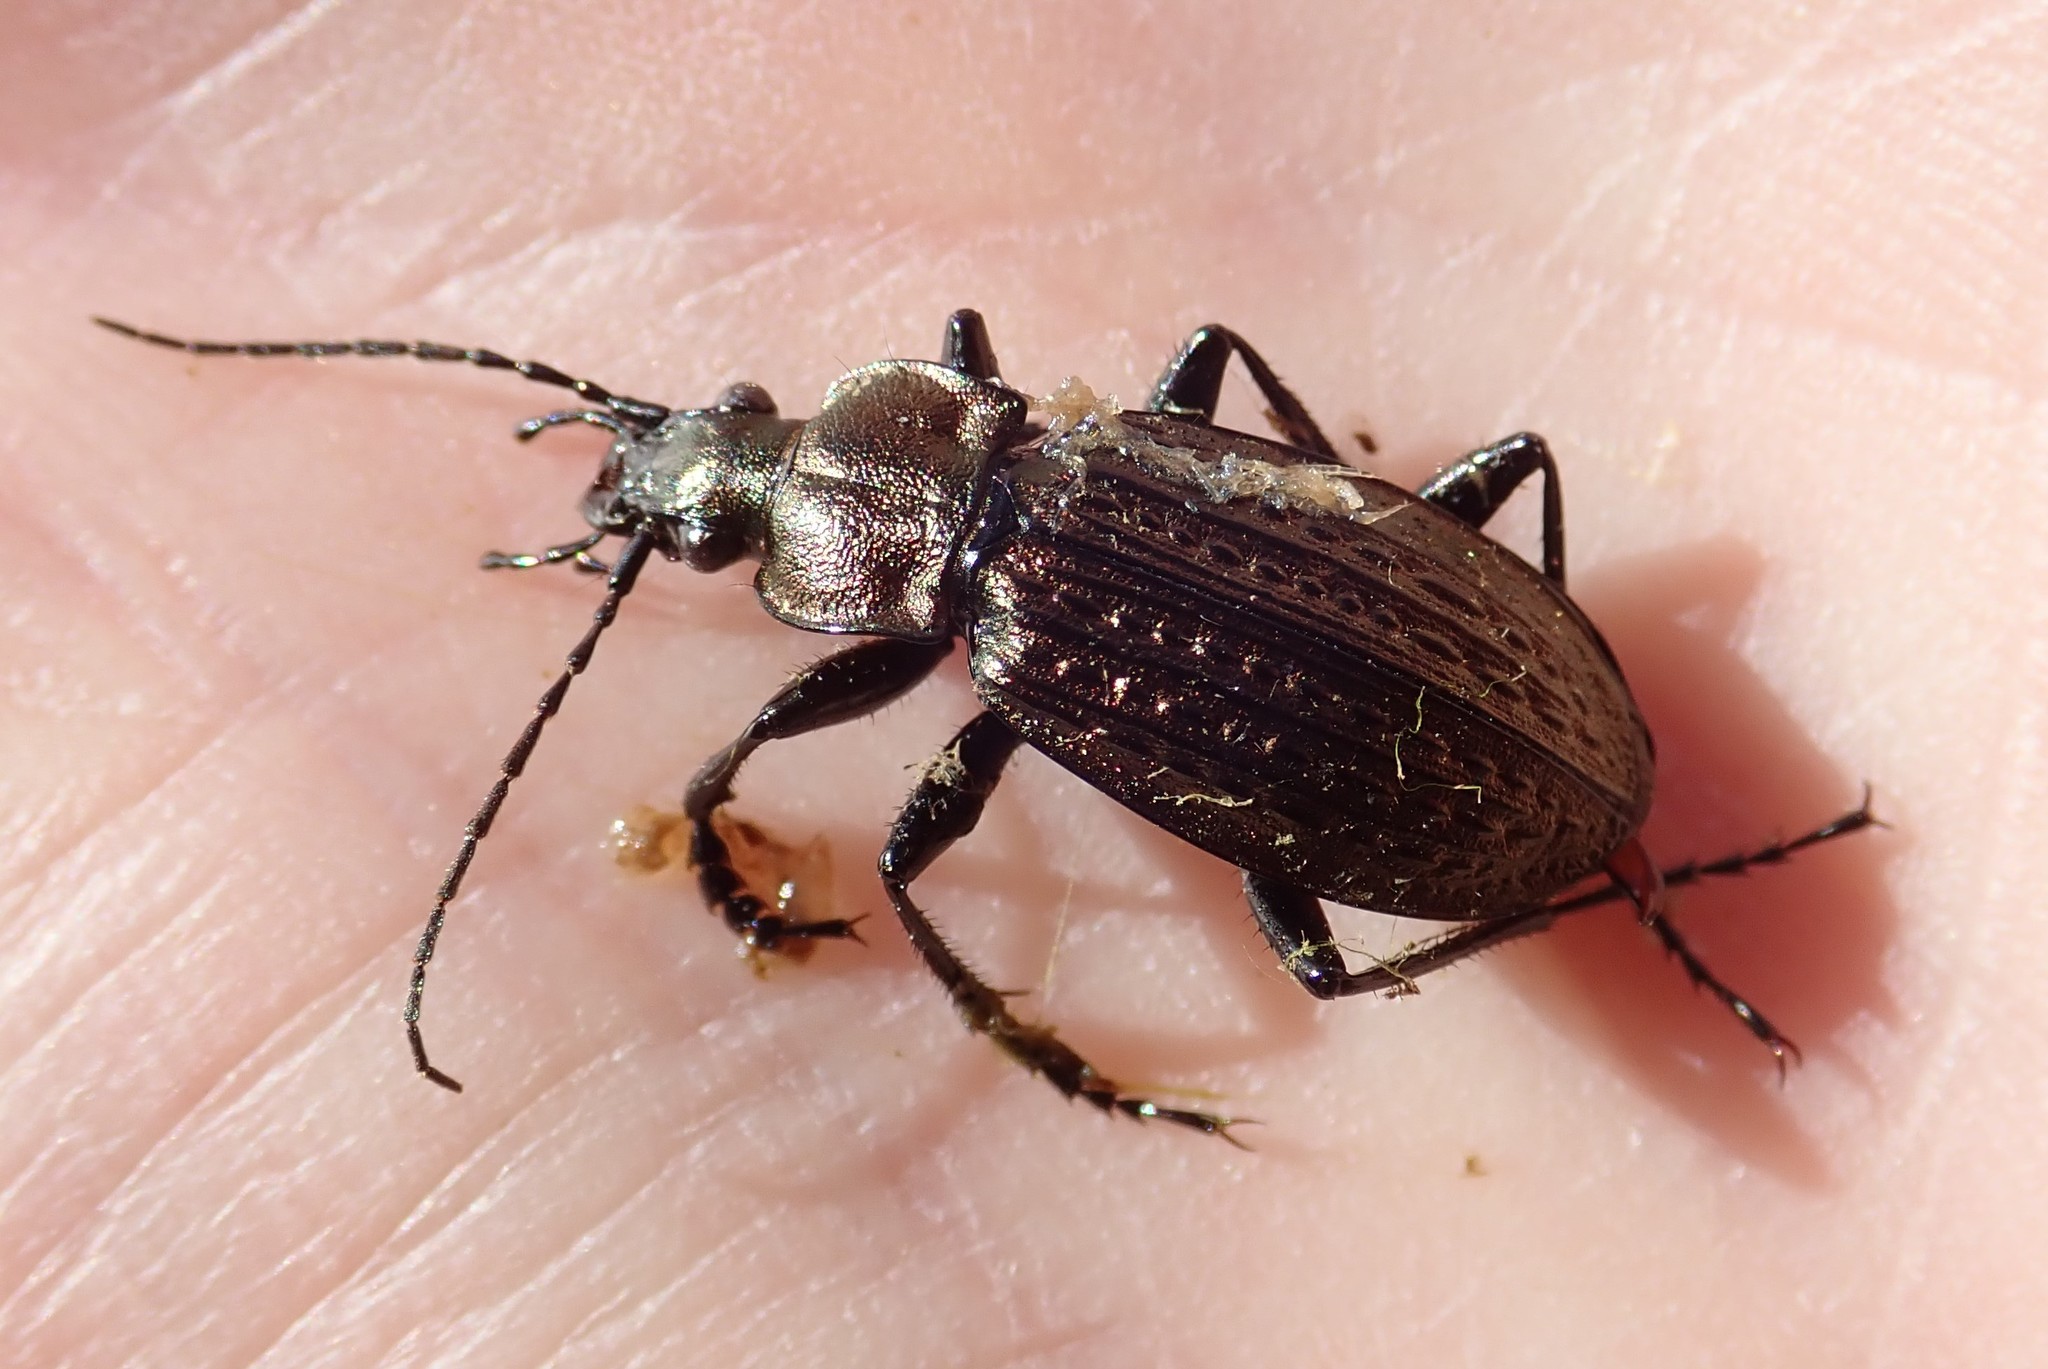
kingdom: Animalia
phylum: Arthropoda
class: Insecta
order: Coleoptera
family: Carabidae
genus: Carabus
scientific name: Carabus granulatus
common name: Granulate ground beetle
